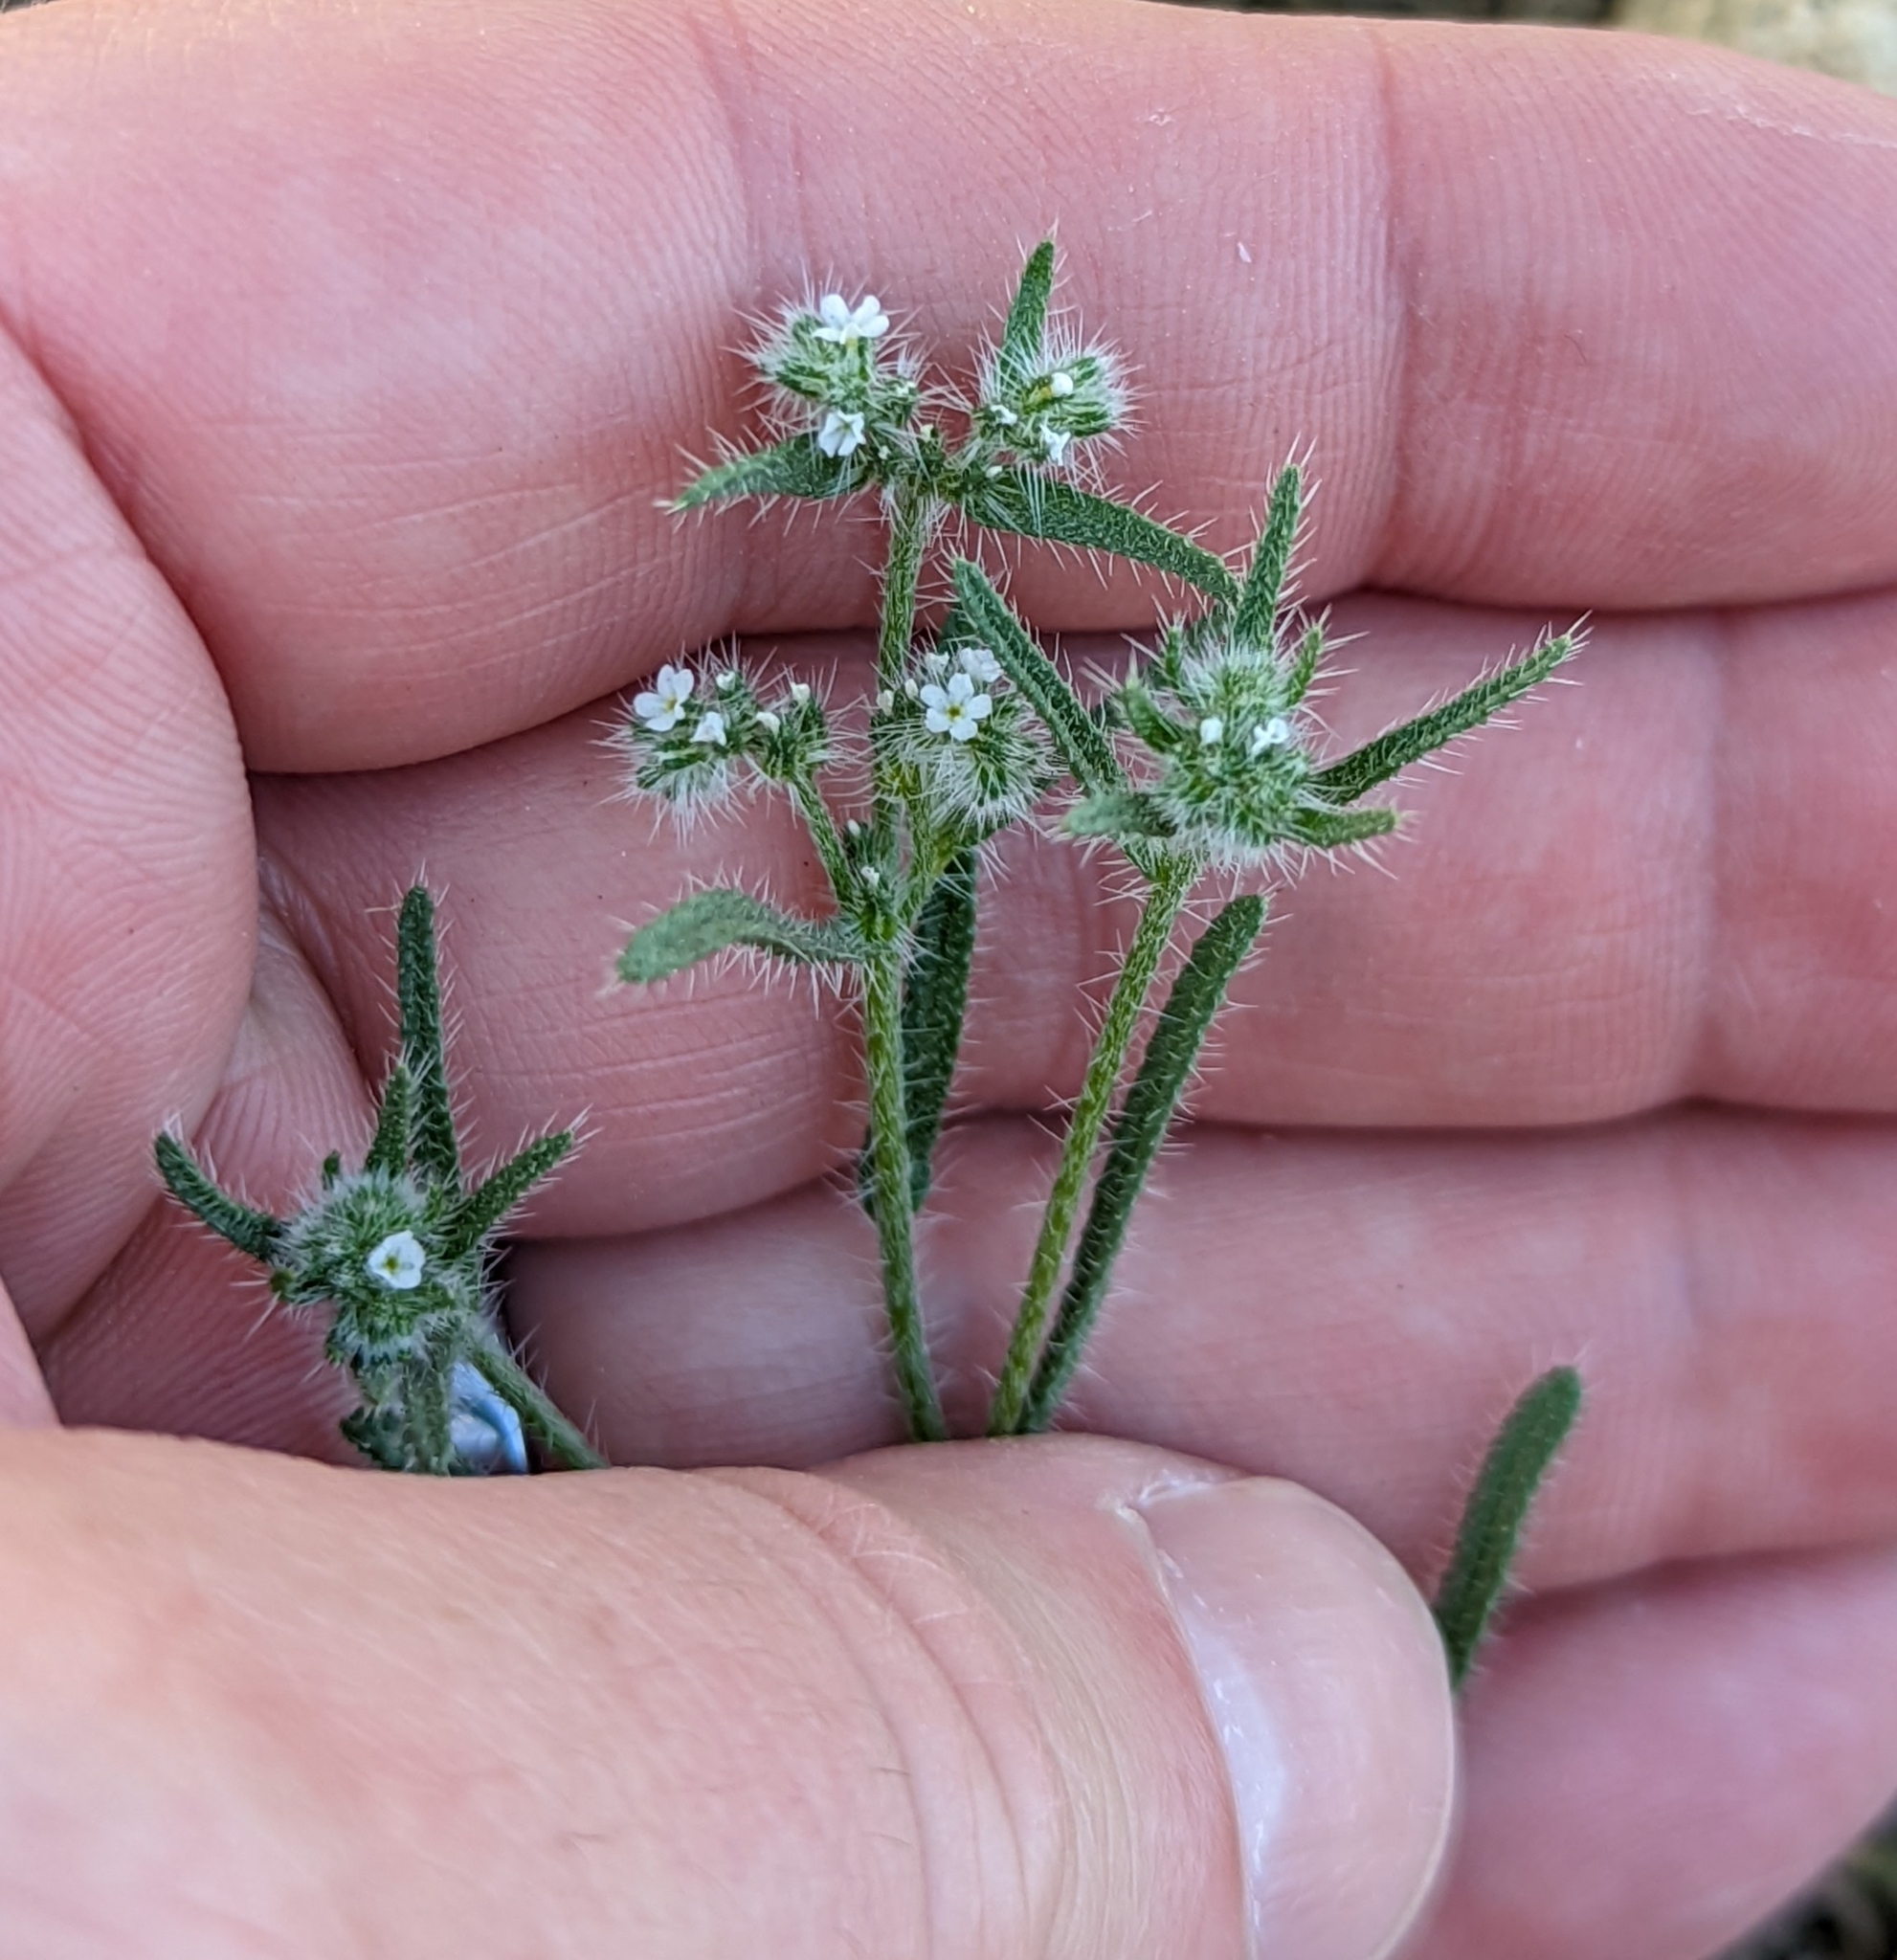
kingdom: Plantae
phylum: Tracheophyta
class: Magnoliopsida
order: Boraginales
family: Boraginaceae
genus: Cryptantha
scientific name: Cryptantha maritima
